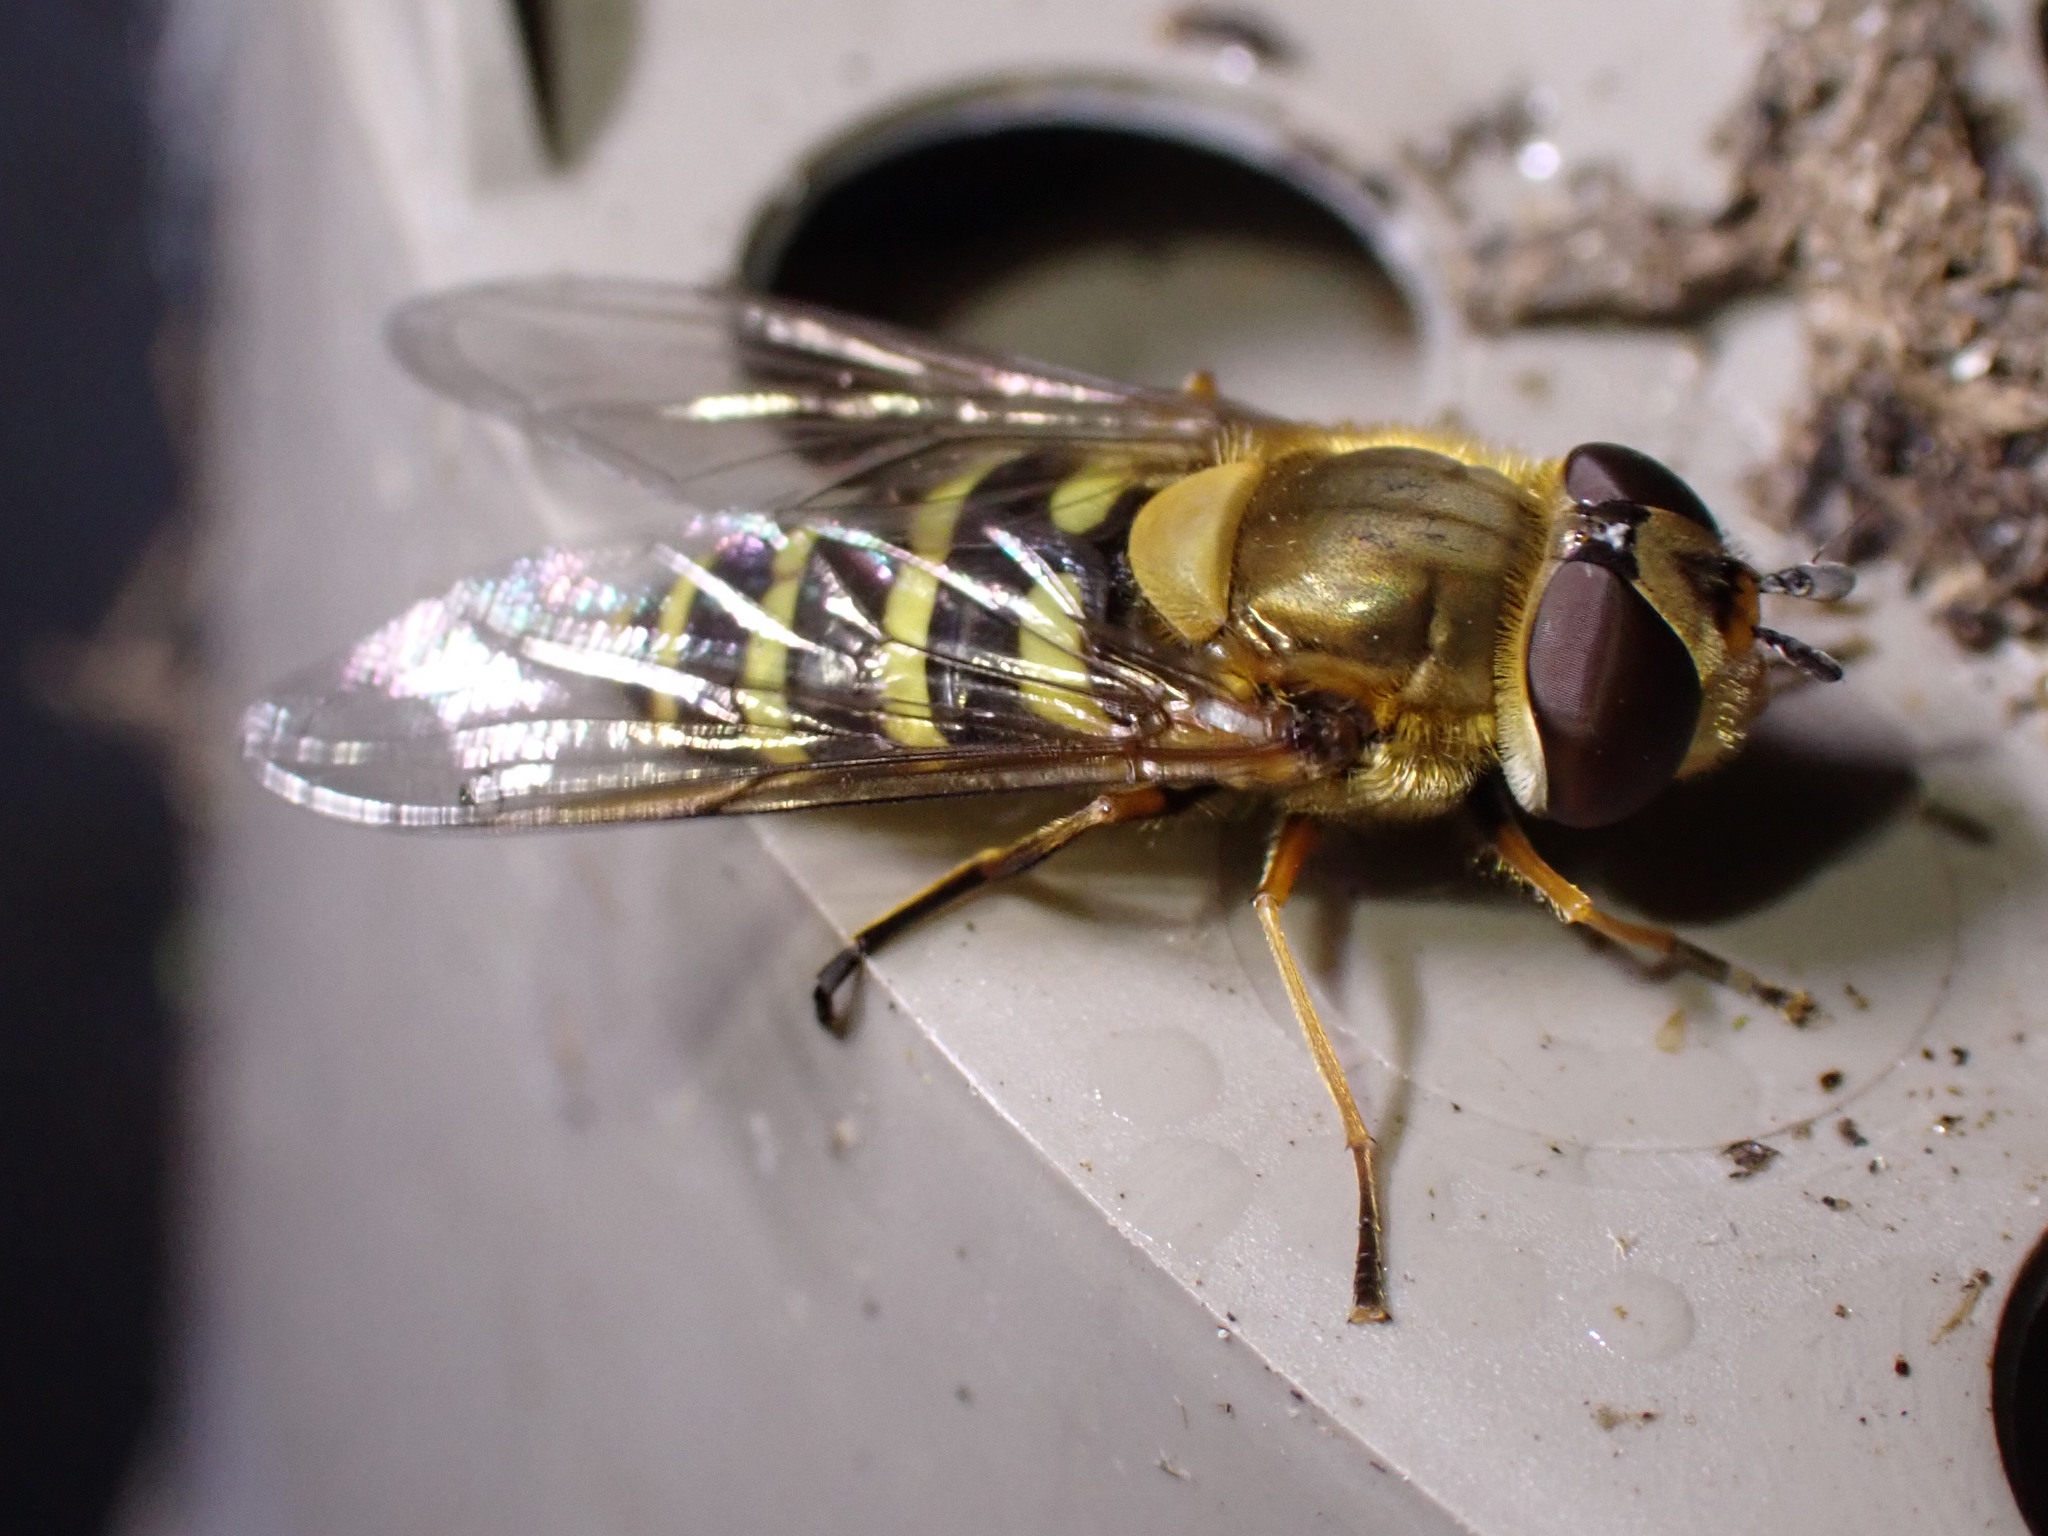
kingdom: Animalia
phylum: Arthropoda
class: Insecta
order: Diptera
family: Syrphidae
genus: Syrphus
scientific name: Syrphus
